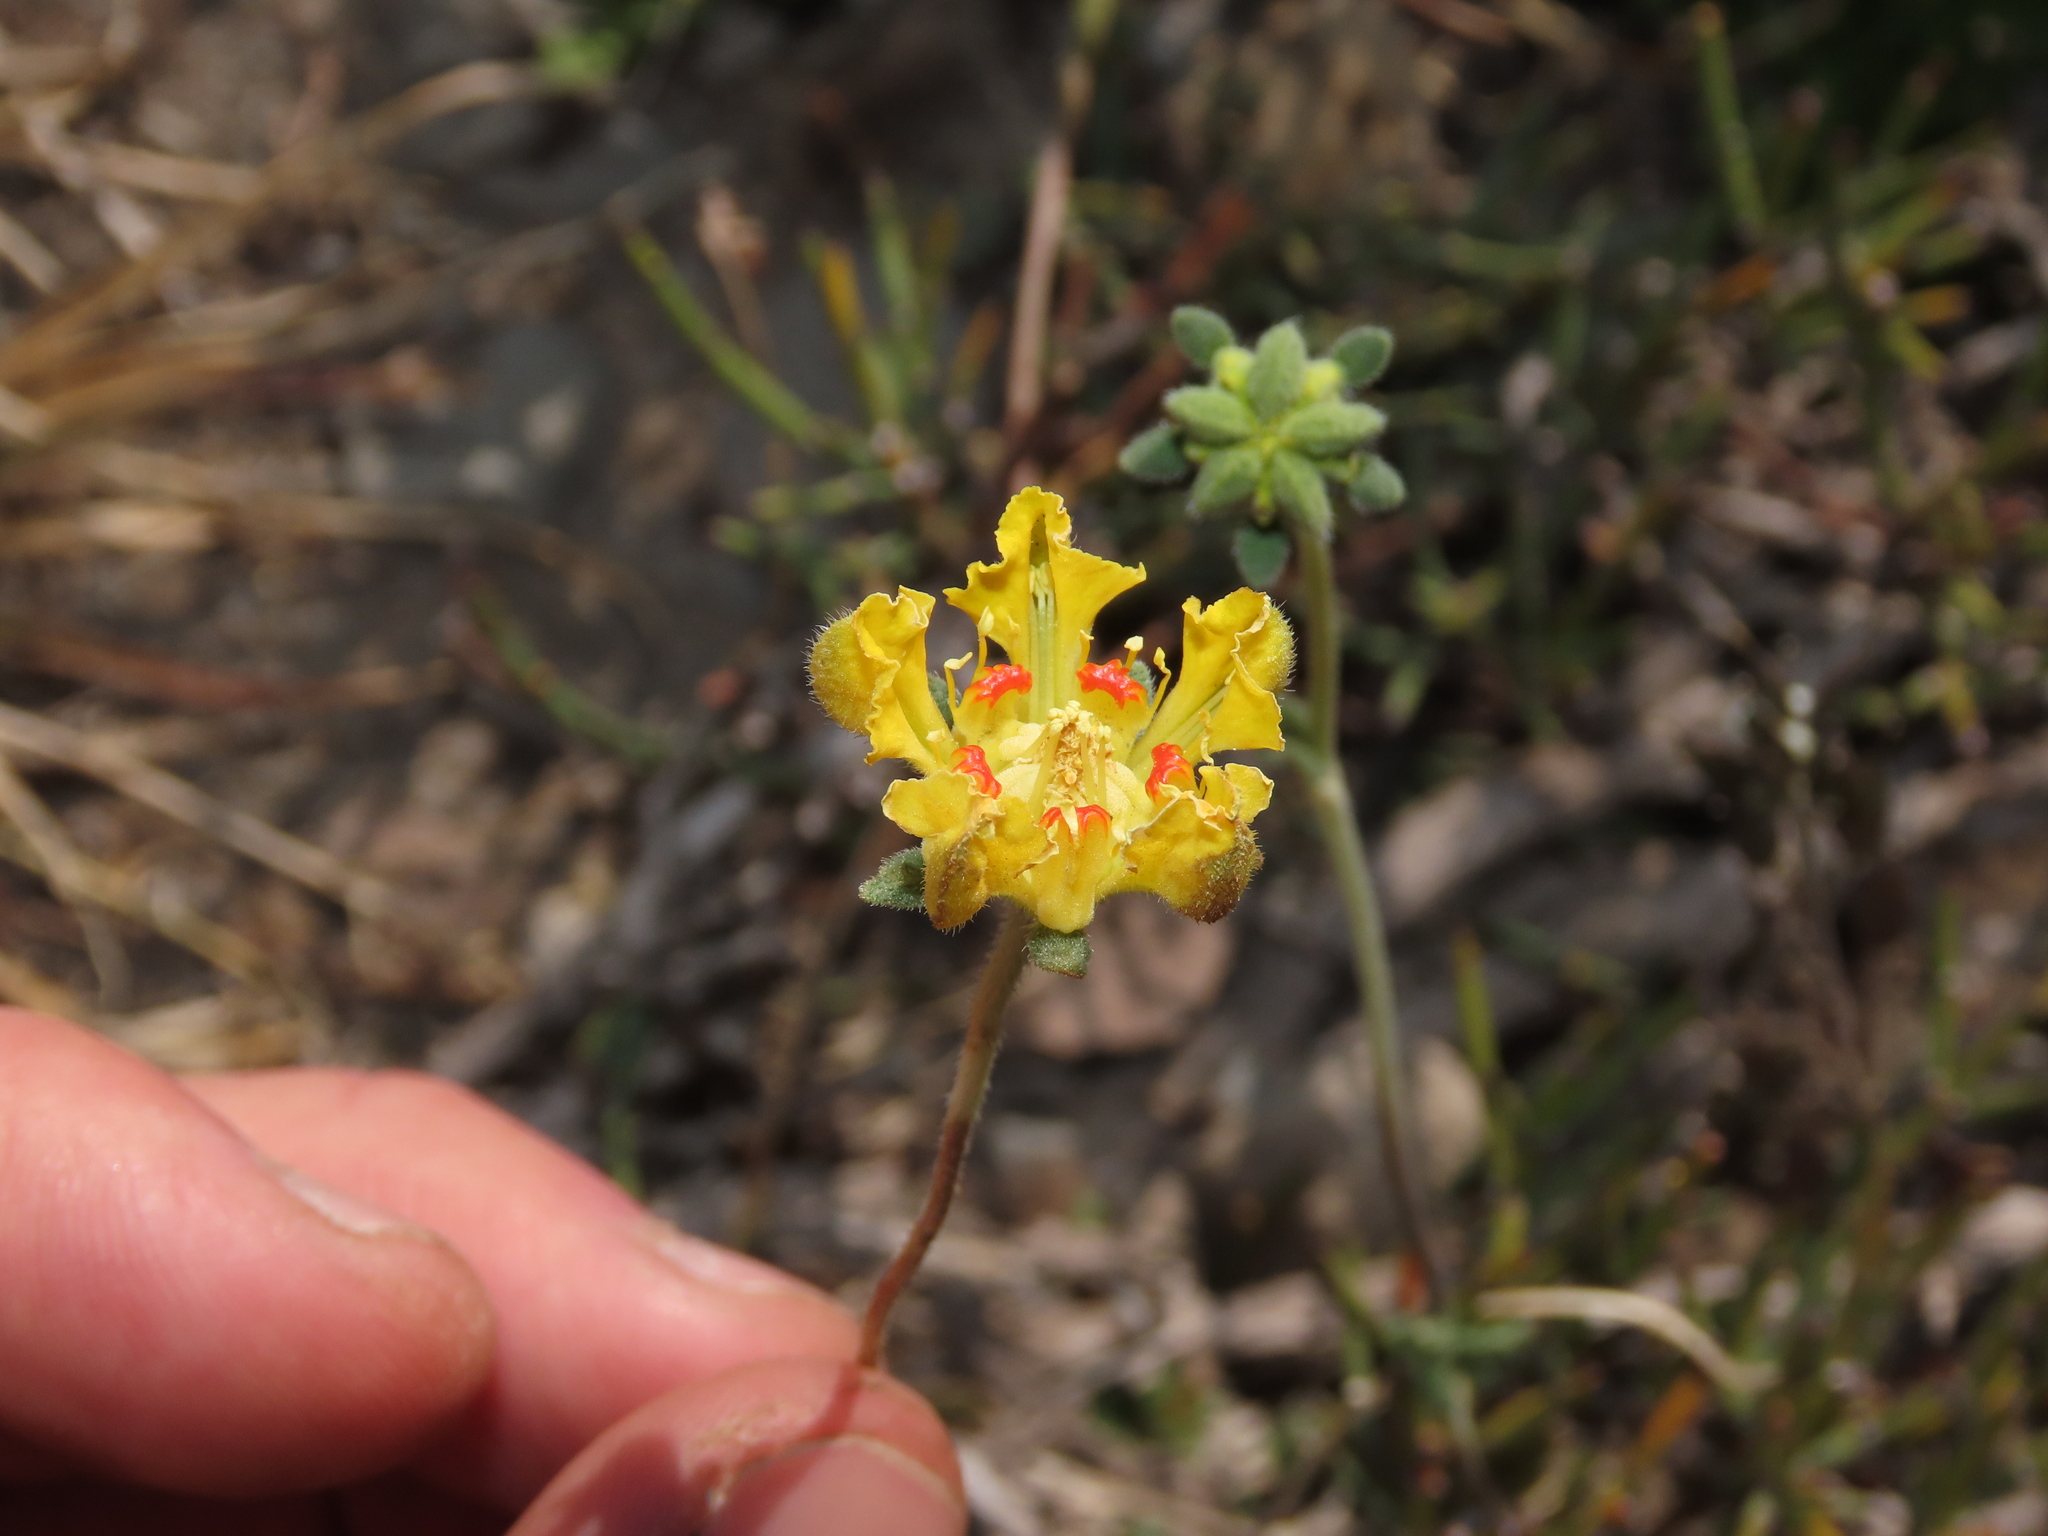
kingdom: Plantae
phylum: Tracheophyta
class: Magnoliopsida
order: Cornales
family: Loasaceae
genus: Loasa
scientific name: Loasa sigmoidea
